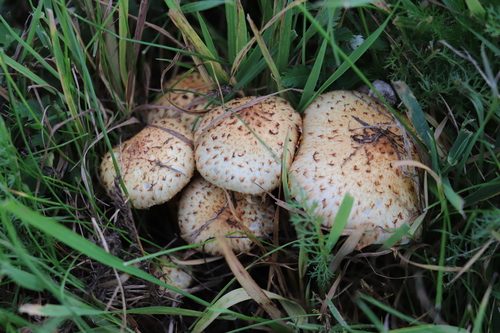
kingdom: Fungi
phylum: Basidiomycota
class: Agaricomycetes
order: Agaricales
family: Strophariaceae
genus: Pholiota
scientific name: Pholiota kodiakensis
